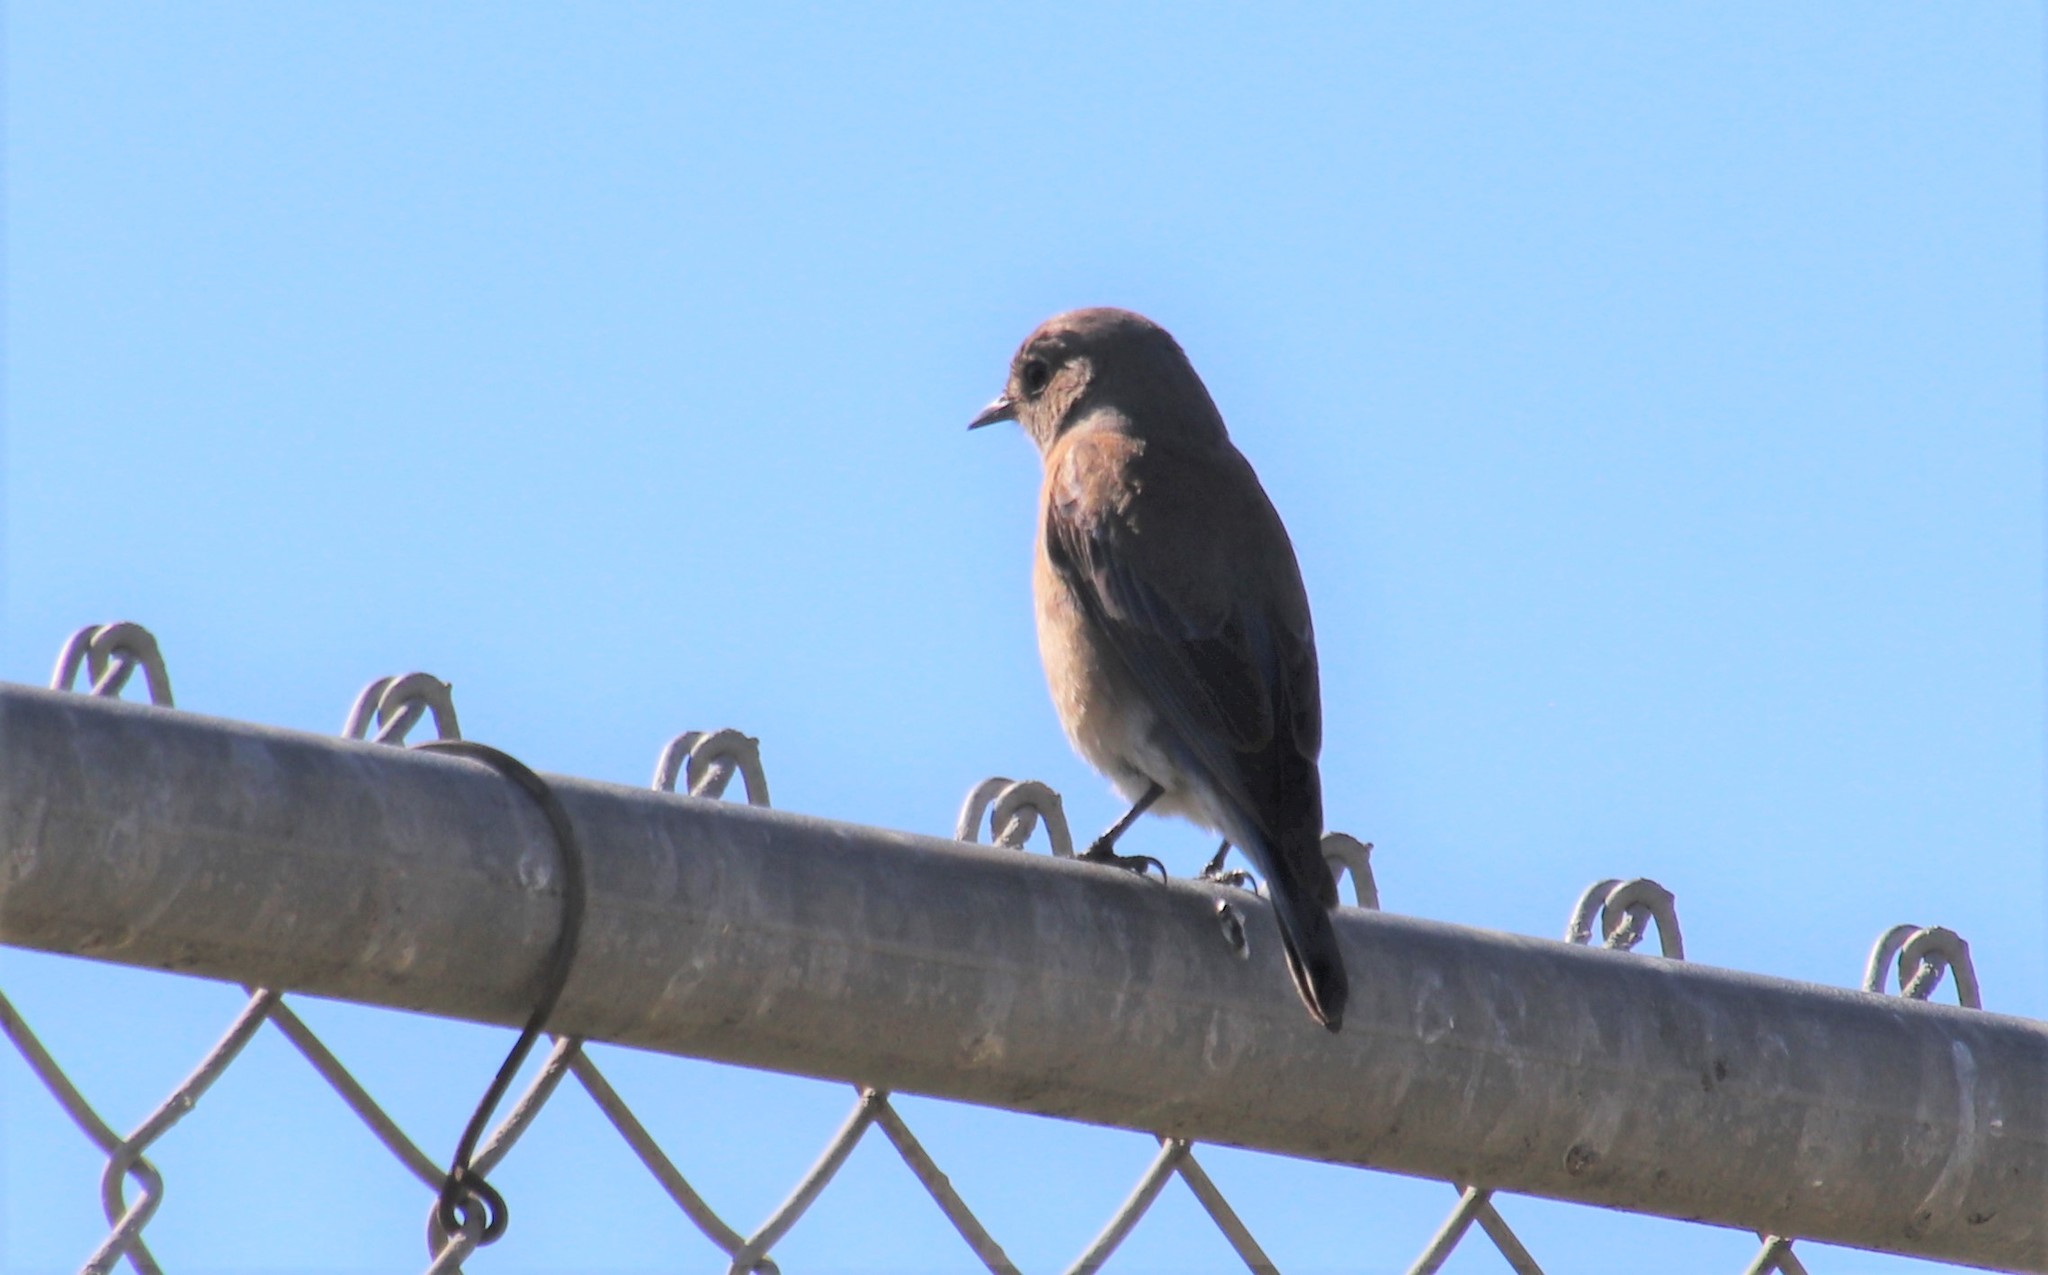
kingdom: Animalia
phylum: Chordata
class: Aves
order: Passeriformes
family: Turdidae
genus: Sialia
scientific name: Sialia mexicana
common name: Western bluebird
